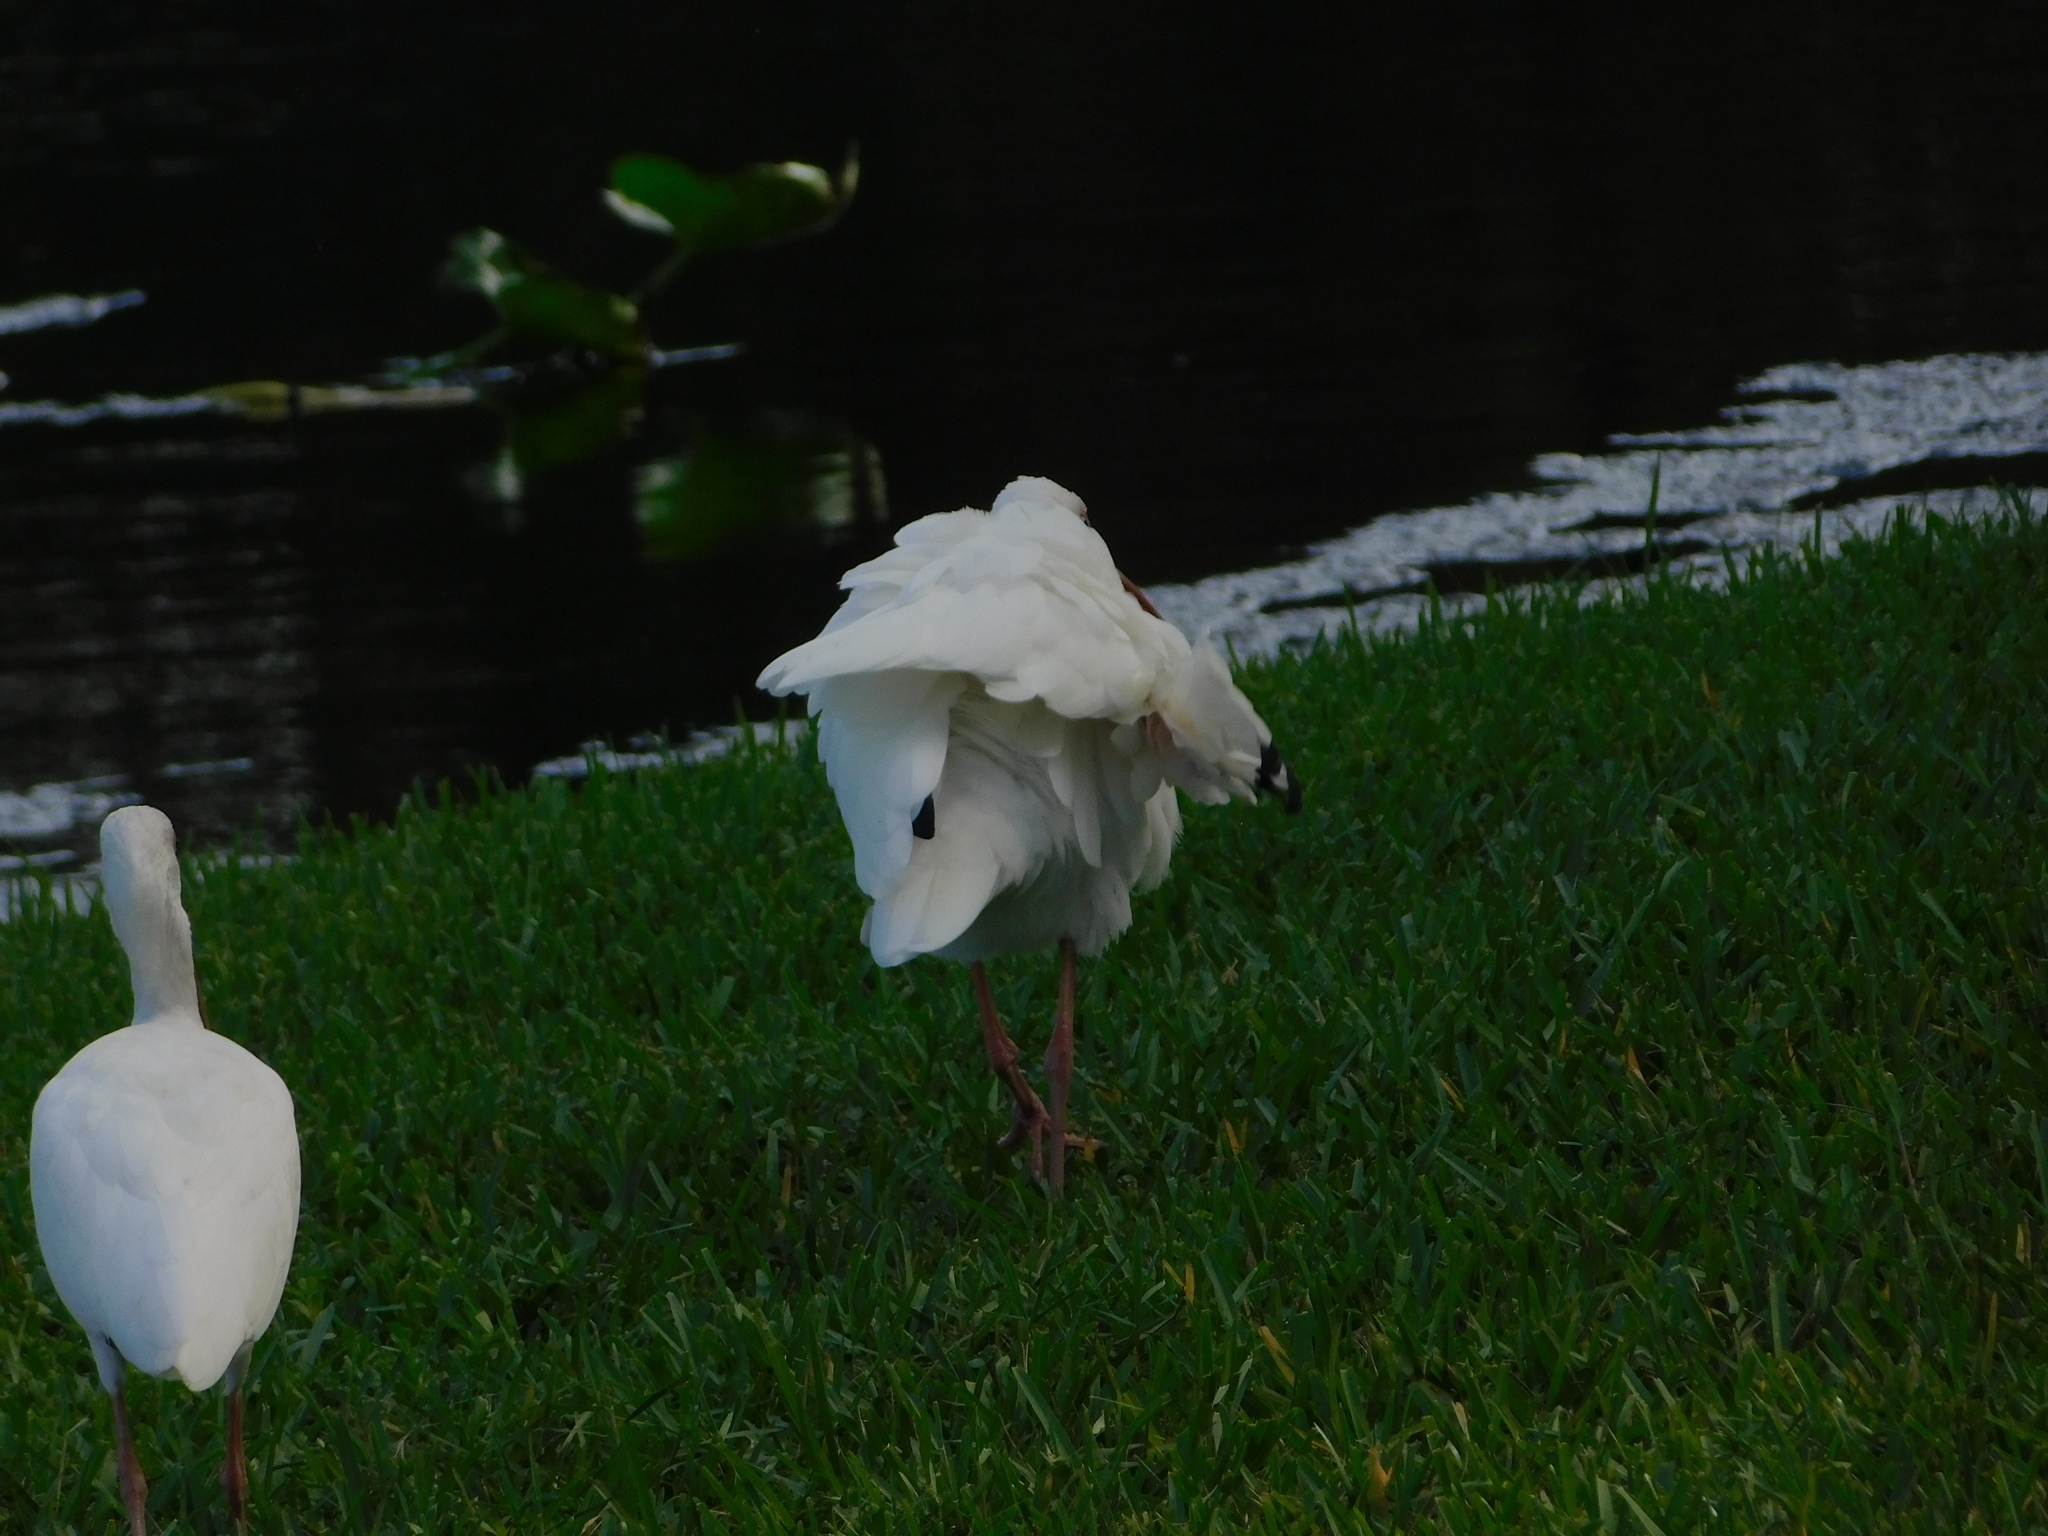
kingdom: Animalia
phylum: Chordata
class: Aves
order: Pelecaniformes
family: Threskiornithidae
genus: Eudocimus
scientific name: Eudocimus albus
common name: White ibis
